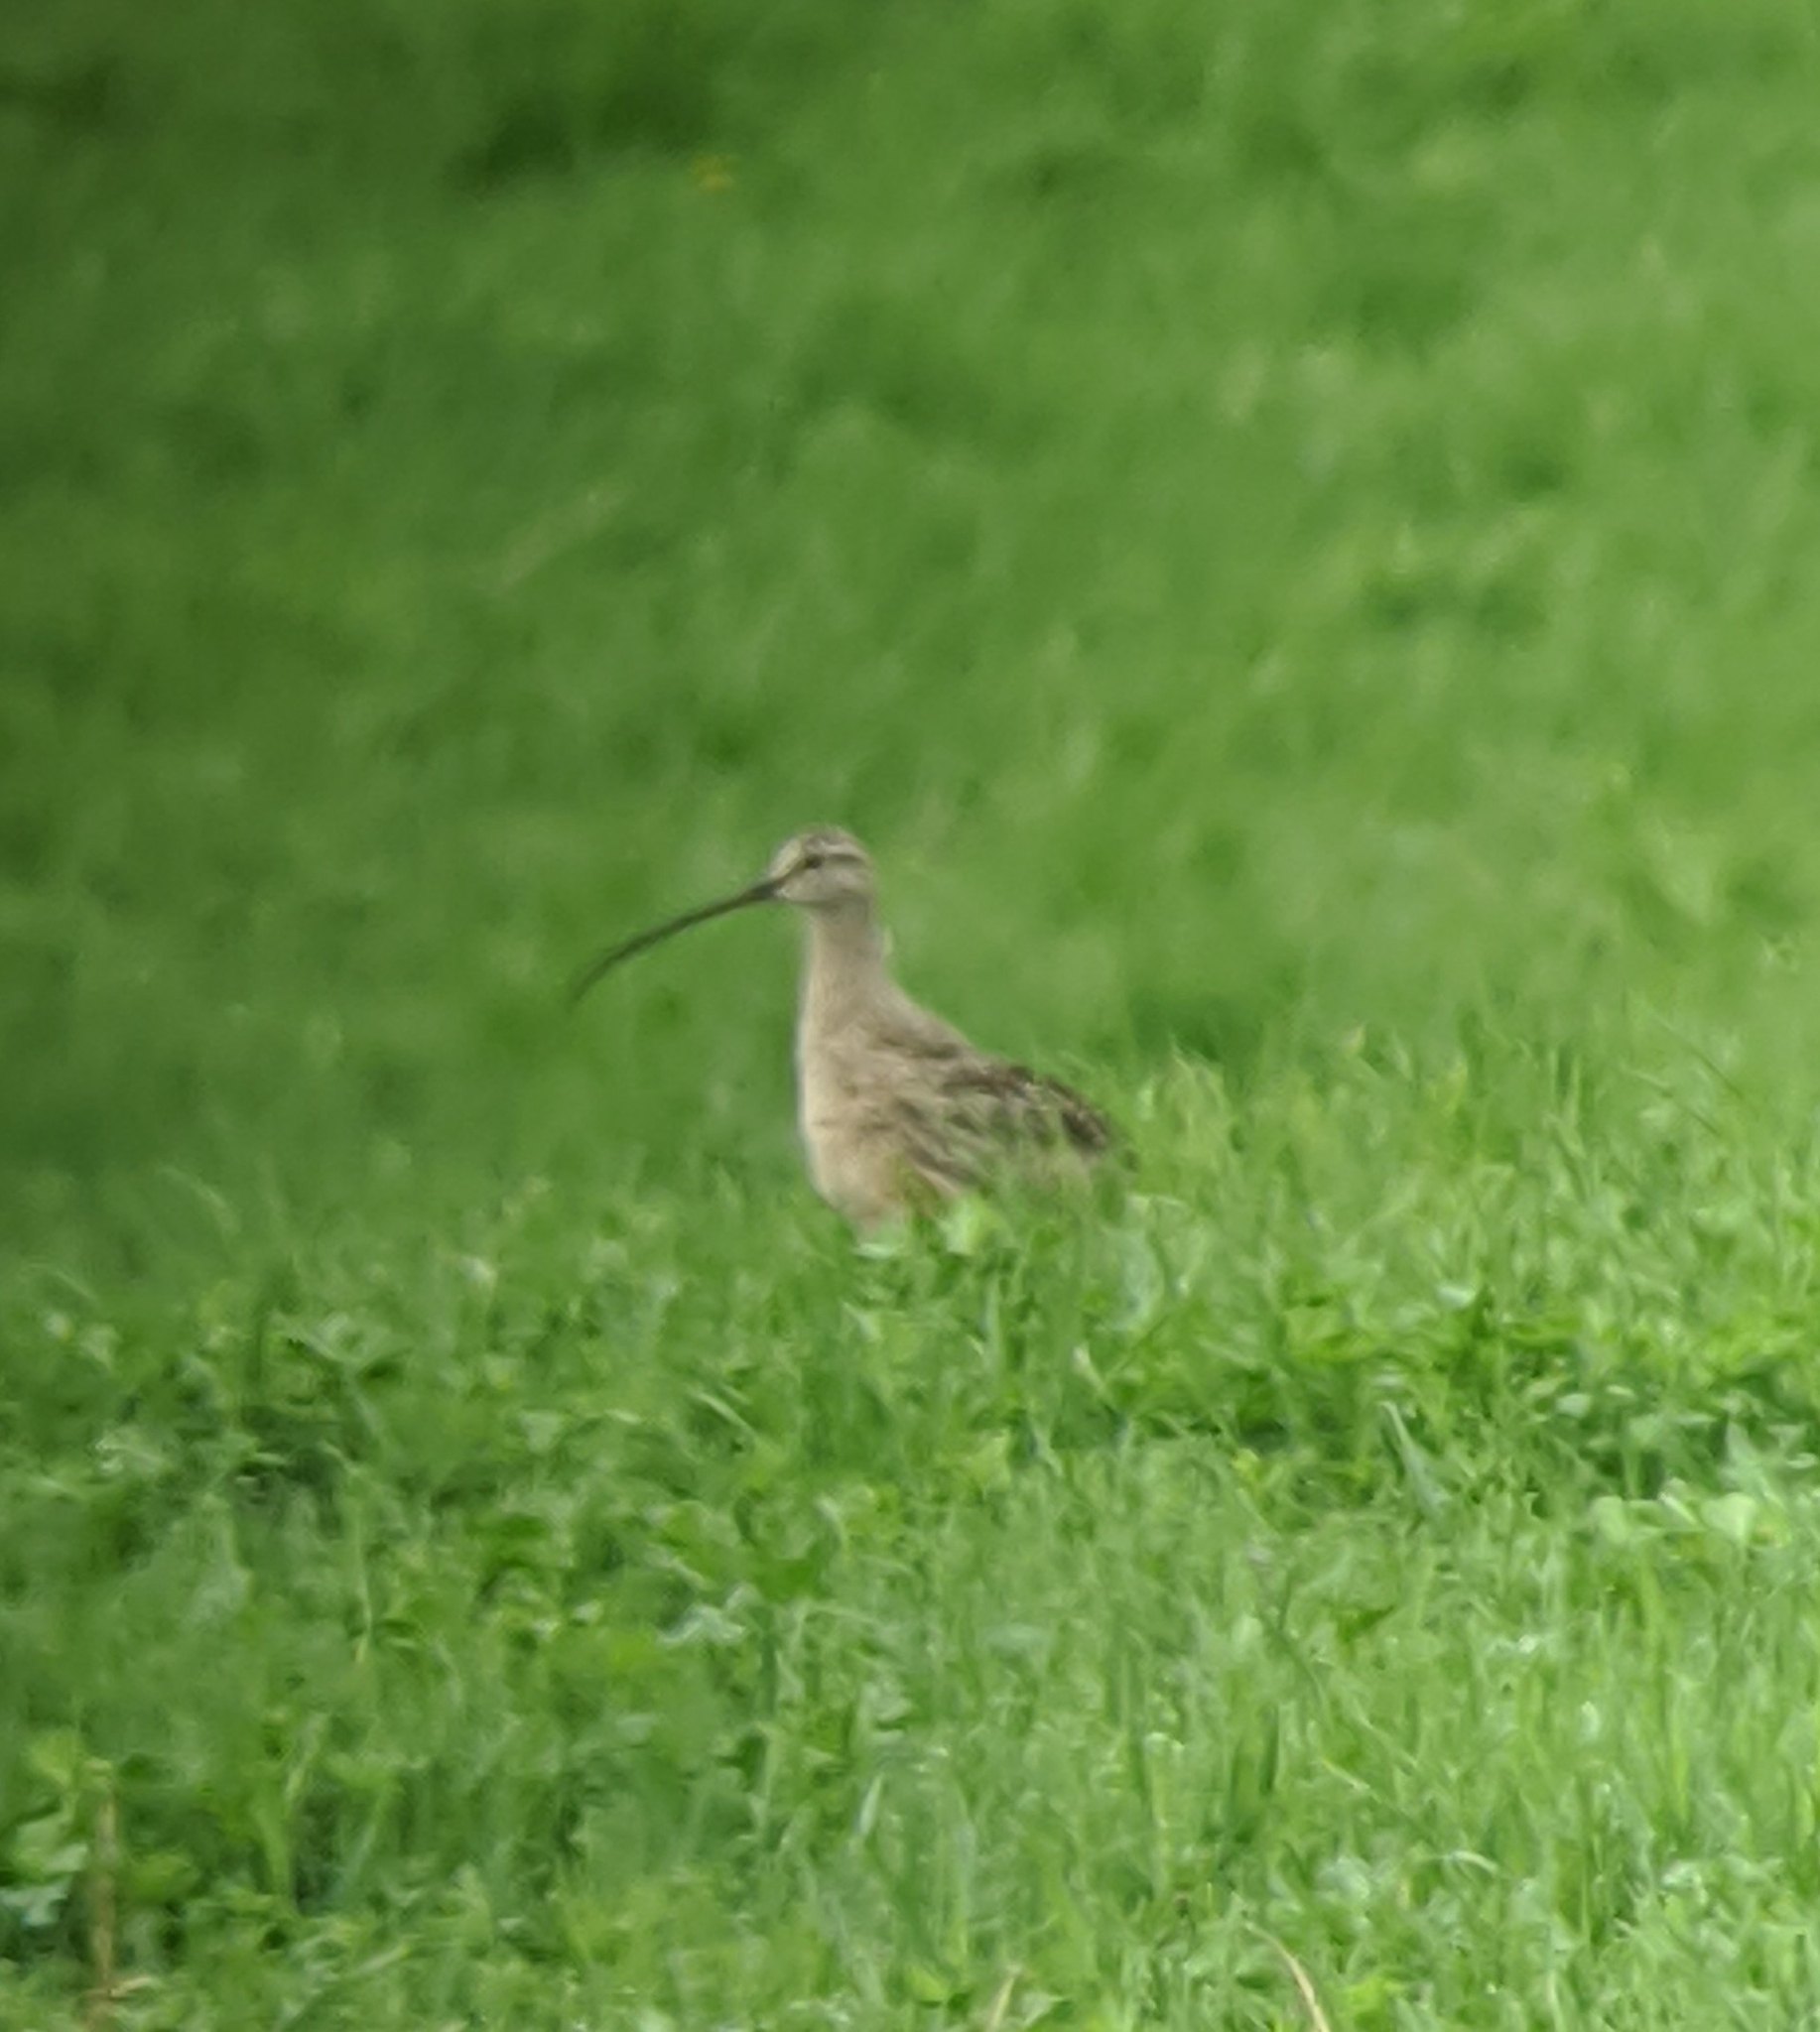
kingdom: Animalia
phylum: Chordata
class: Aves
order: Charadriiformes
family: Scolopacidae
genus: Numenius
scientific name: Numenius americanus
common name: Long-billed curlew
